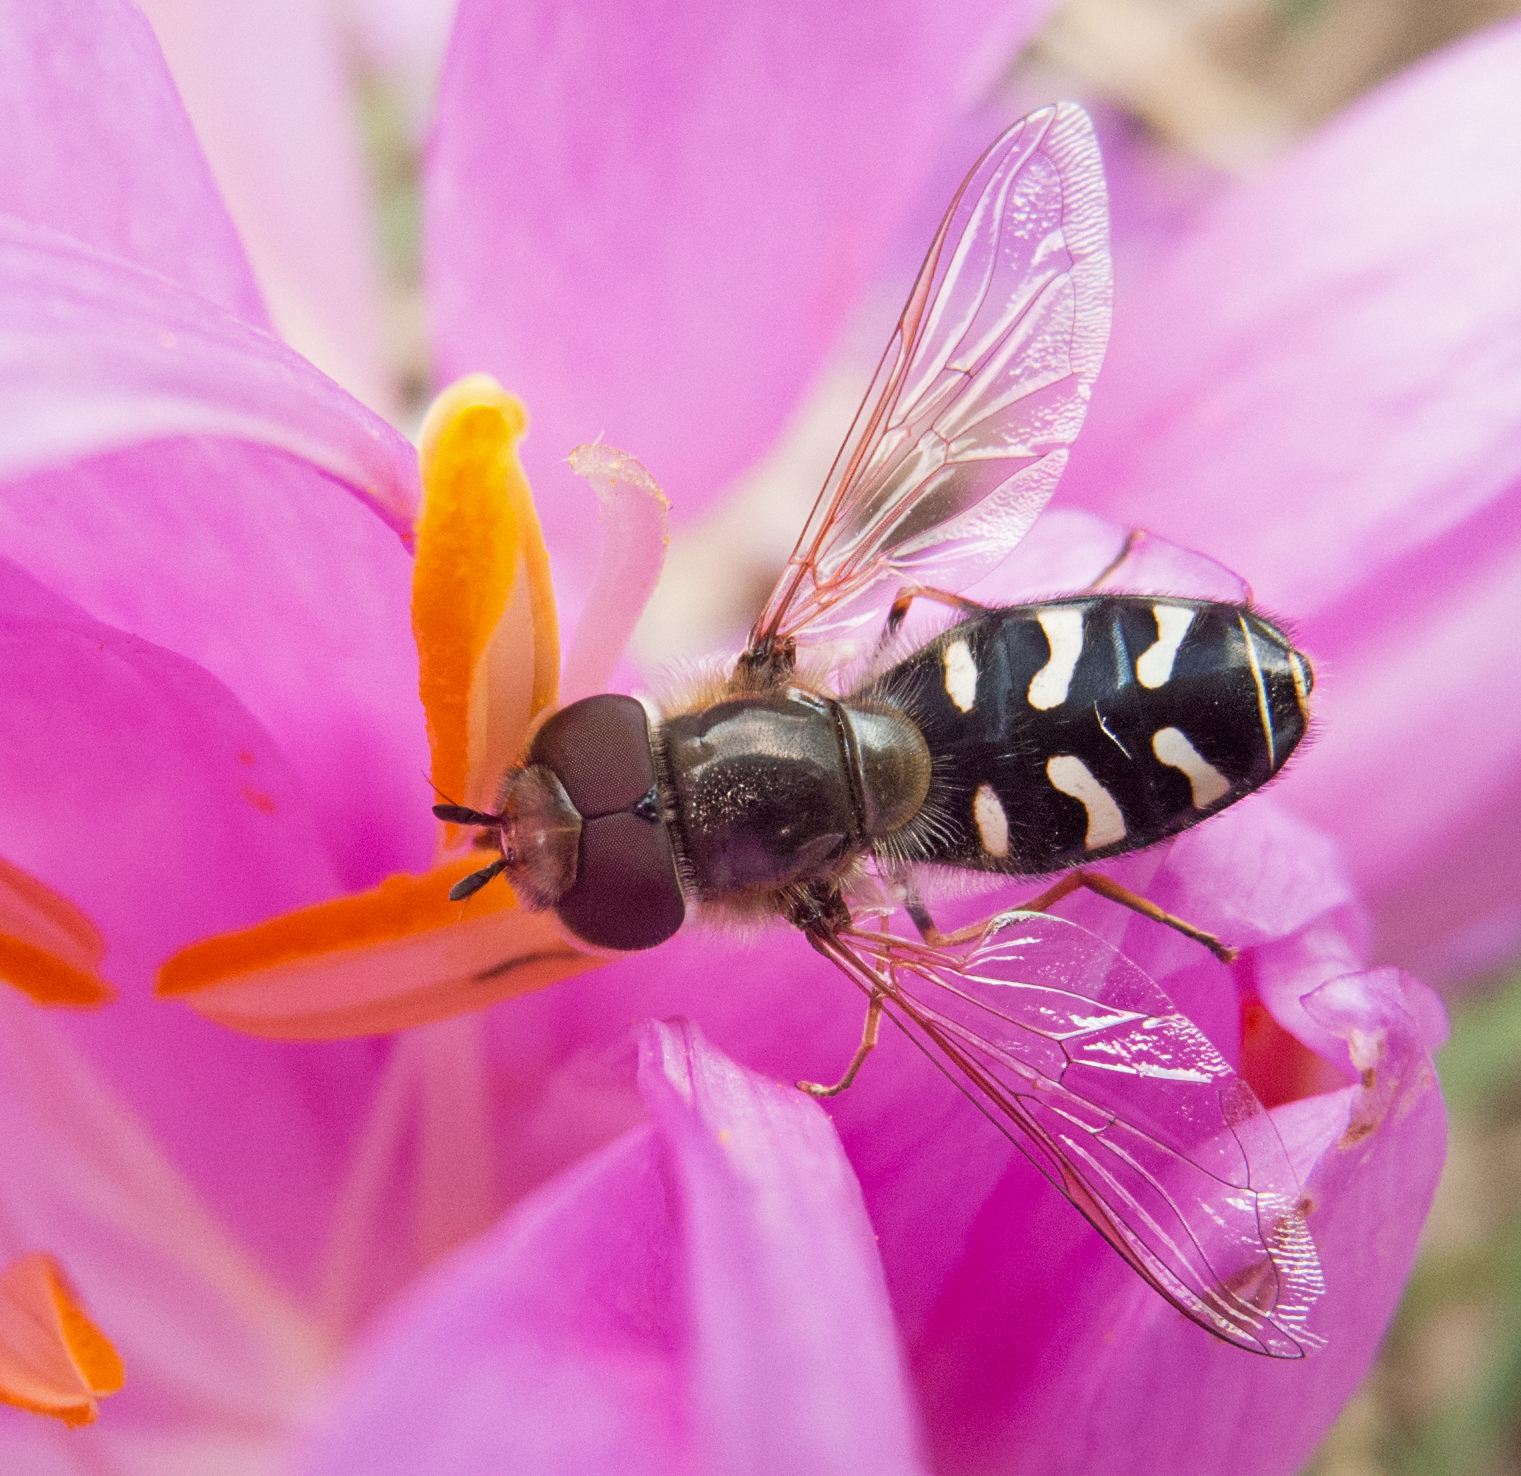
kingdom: Animalia
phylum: Arthropoda
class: Insecta
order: Diptera
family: Syrphidae
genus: Scaeva
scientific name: Scaeva pyrastri
